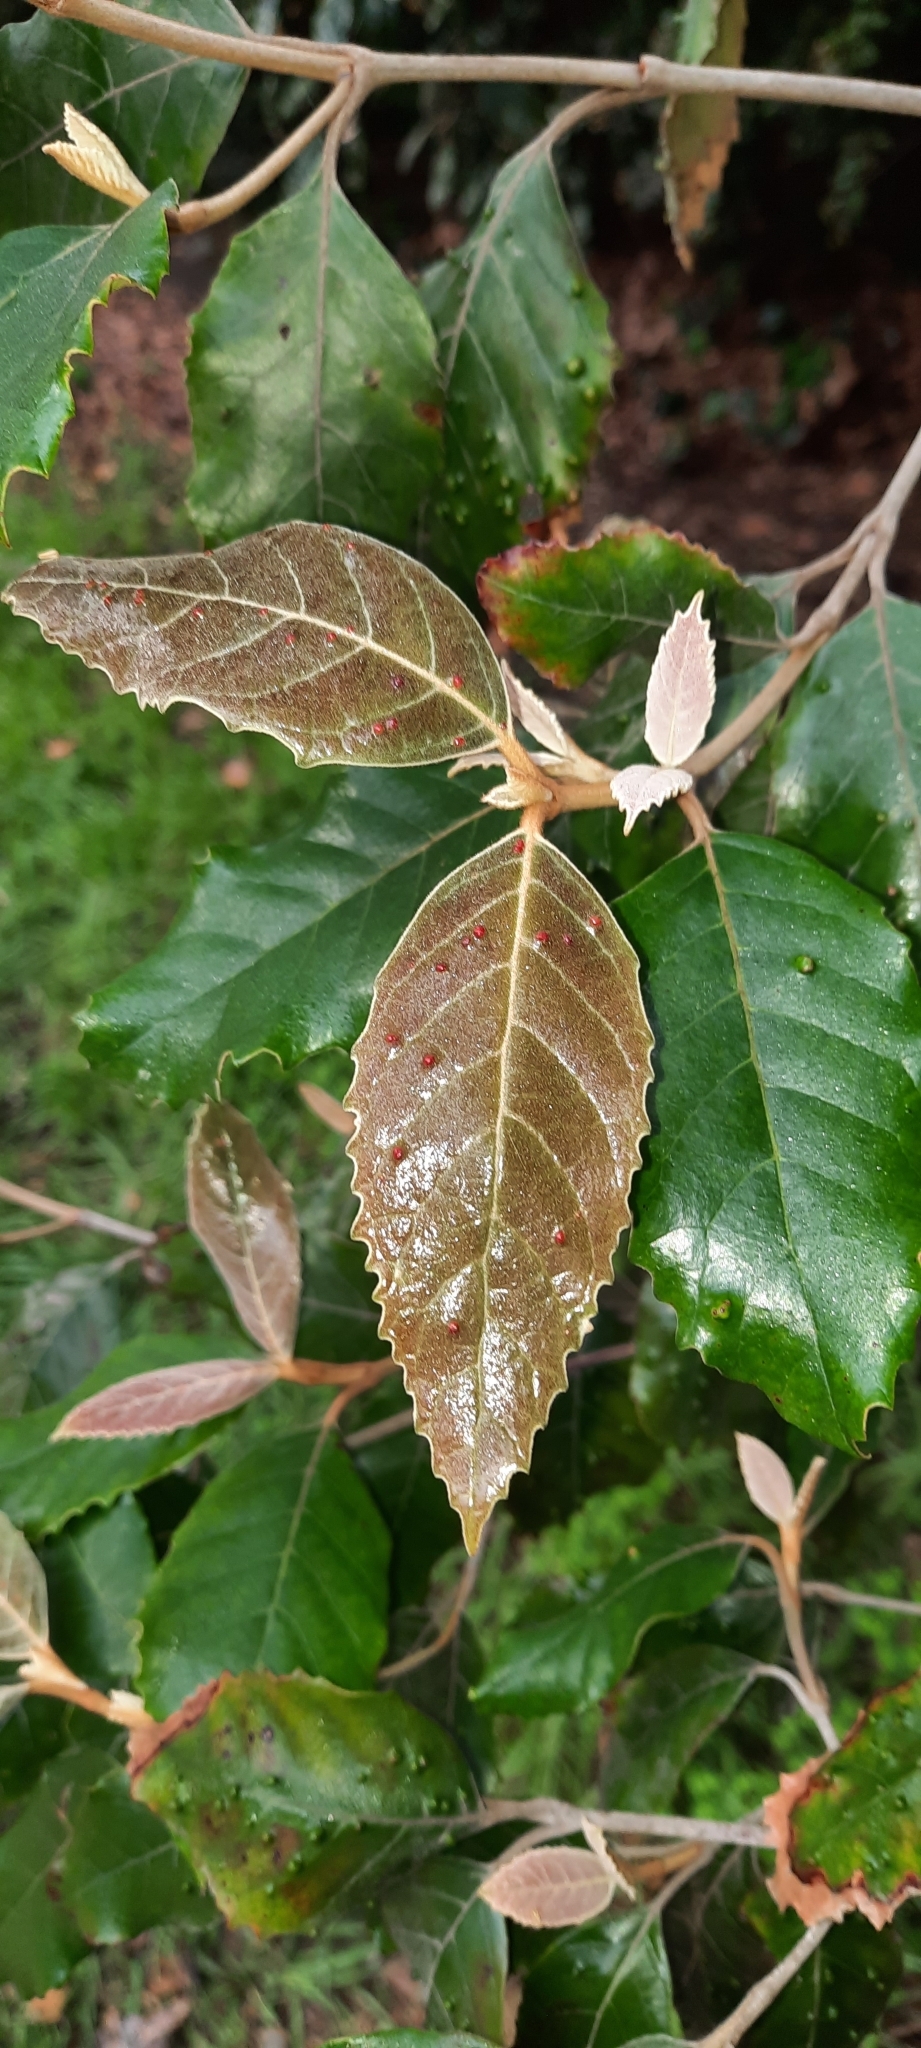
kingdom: Plantae
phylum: Tracheophyta
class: Magnoliopsida
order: Cornales
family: Curtisiaceae
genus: Curtisia
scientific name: Curtisia dentata
